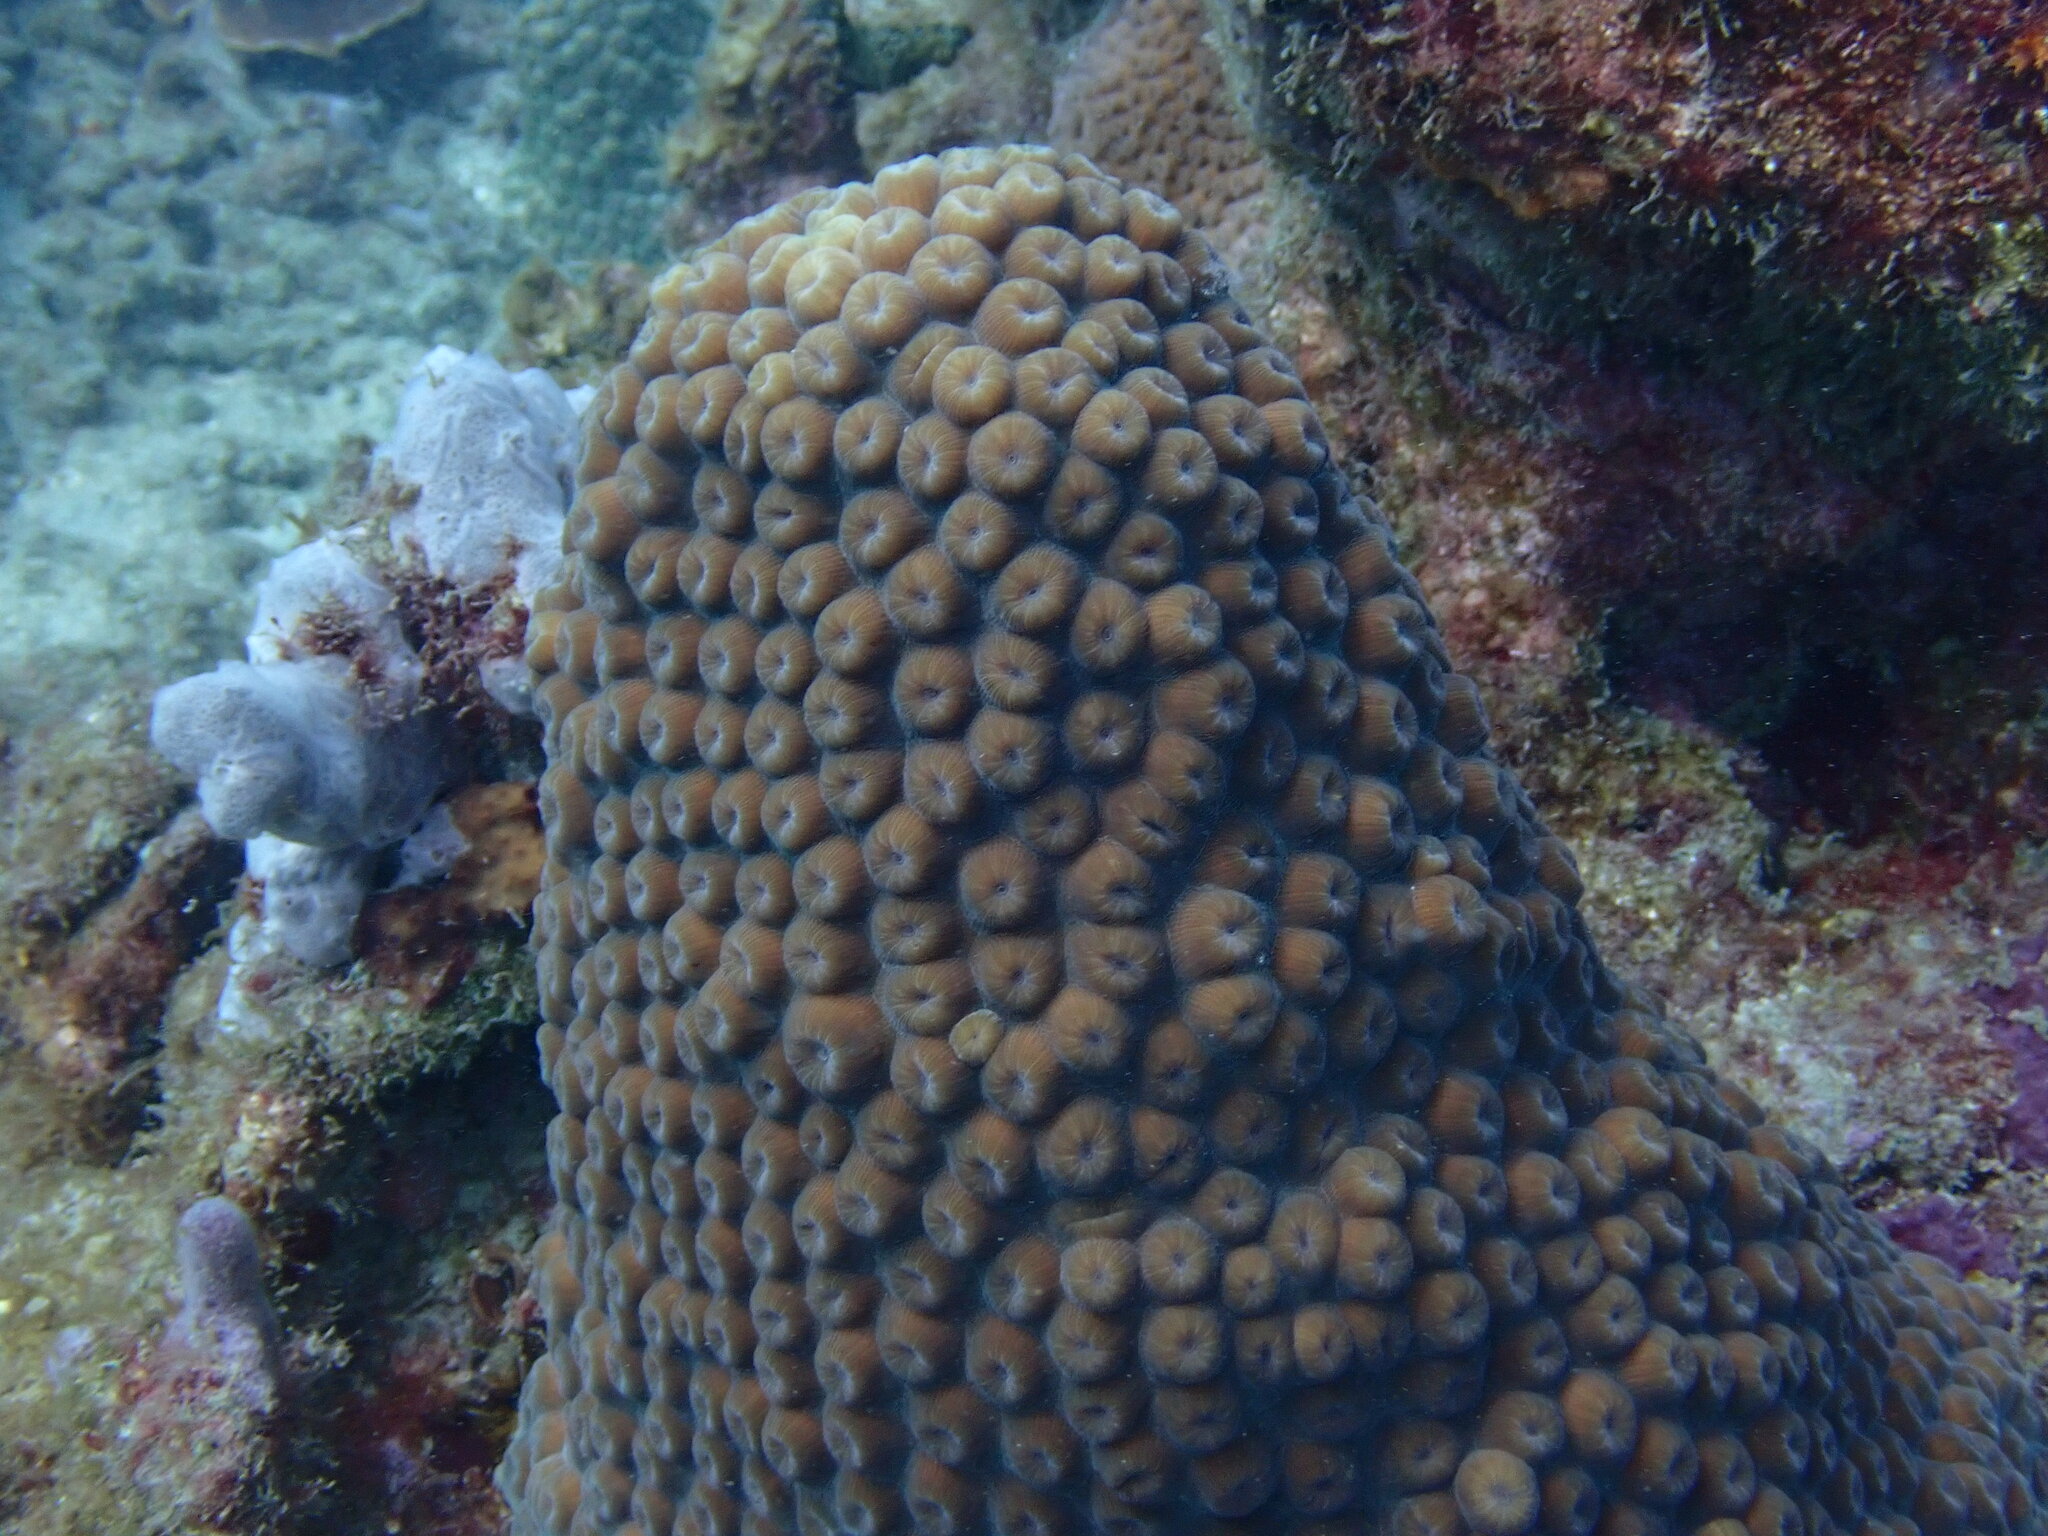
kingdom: Animalia
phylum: Cnidaria
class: Anthozoa
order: Scleractinia
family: Montastraeidae
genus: Montastraea
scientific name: Montastraea cavernosa
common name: Great star coral
